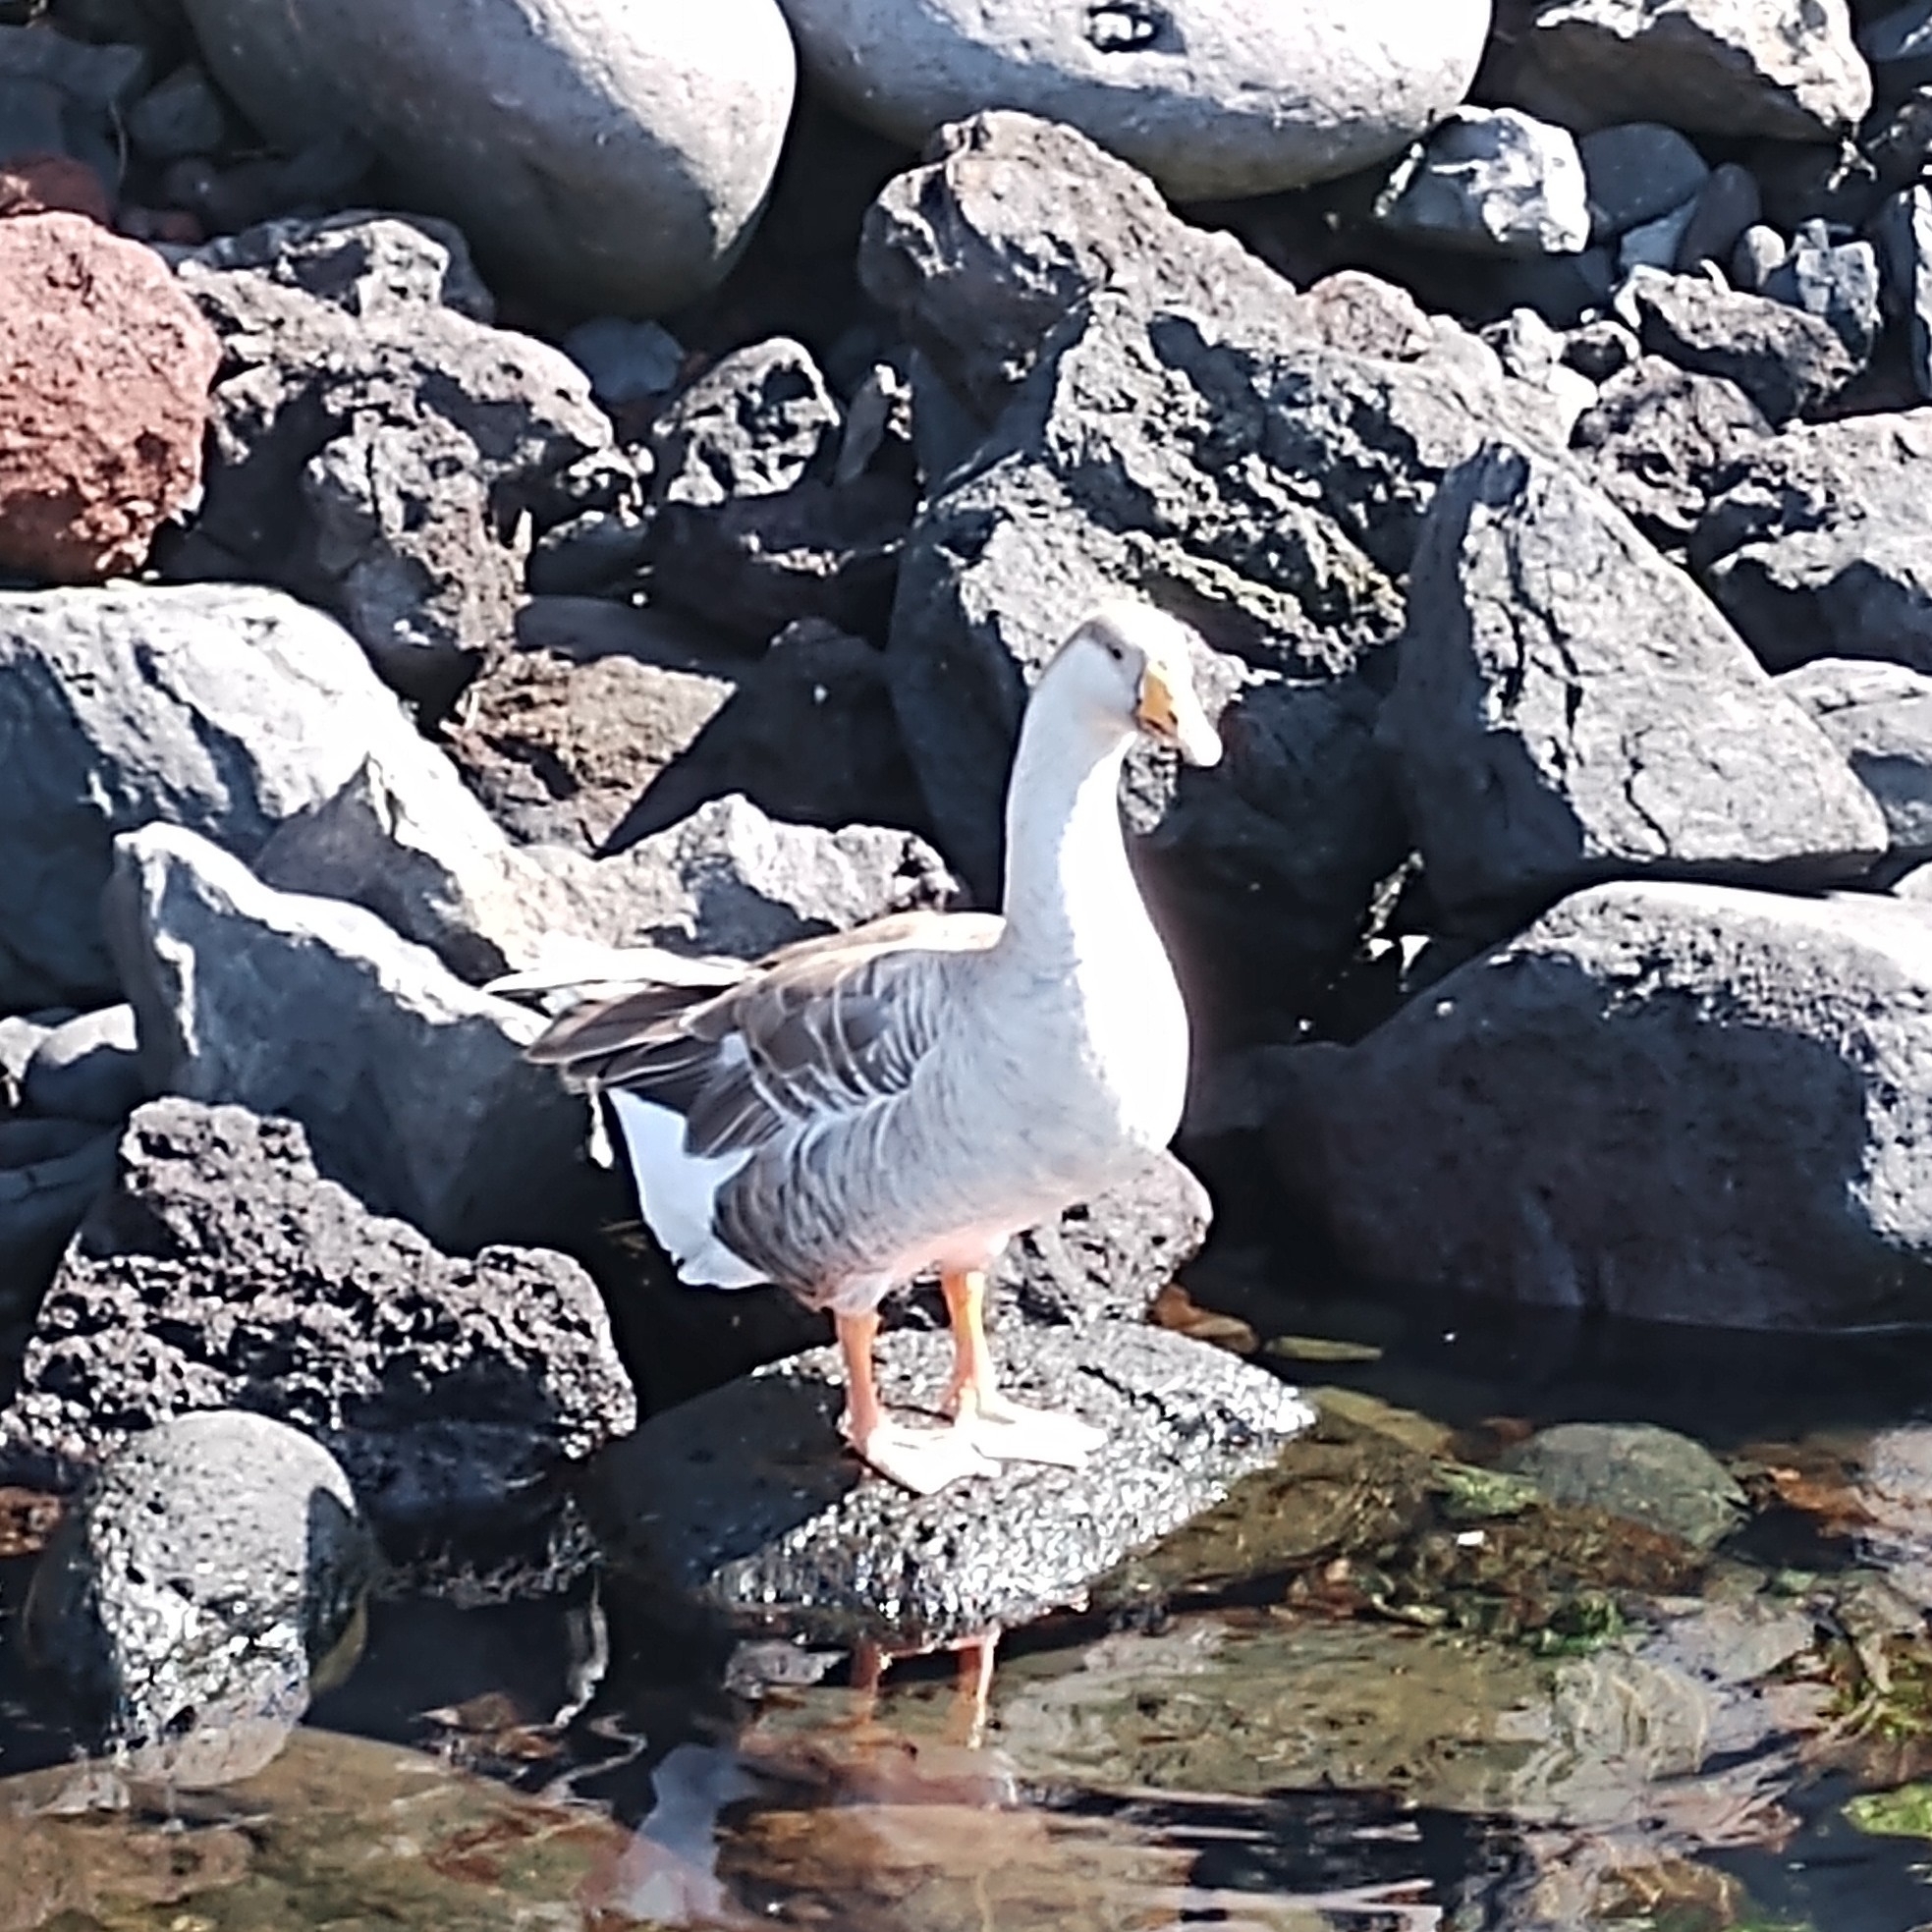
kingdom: Animalia
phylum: Chordata
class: Aves
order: Anseriformes
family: Anatidae
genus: Anser
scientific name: Anser
